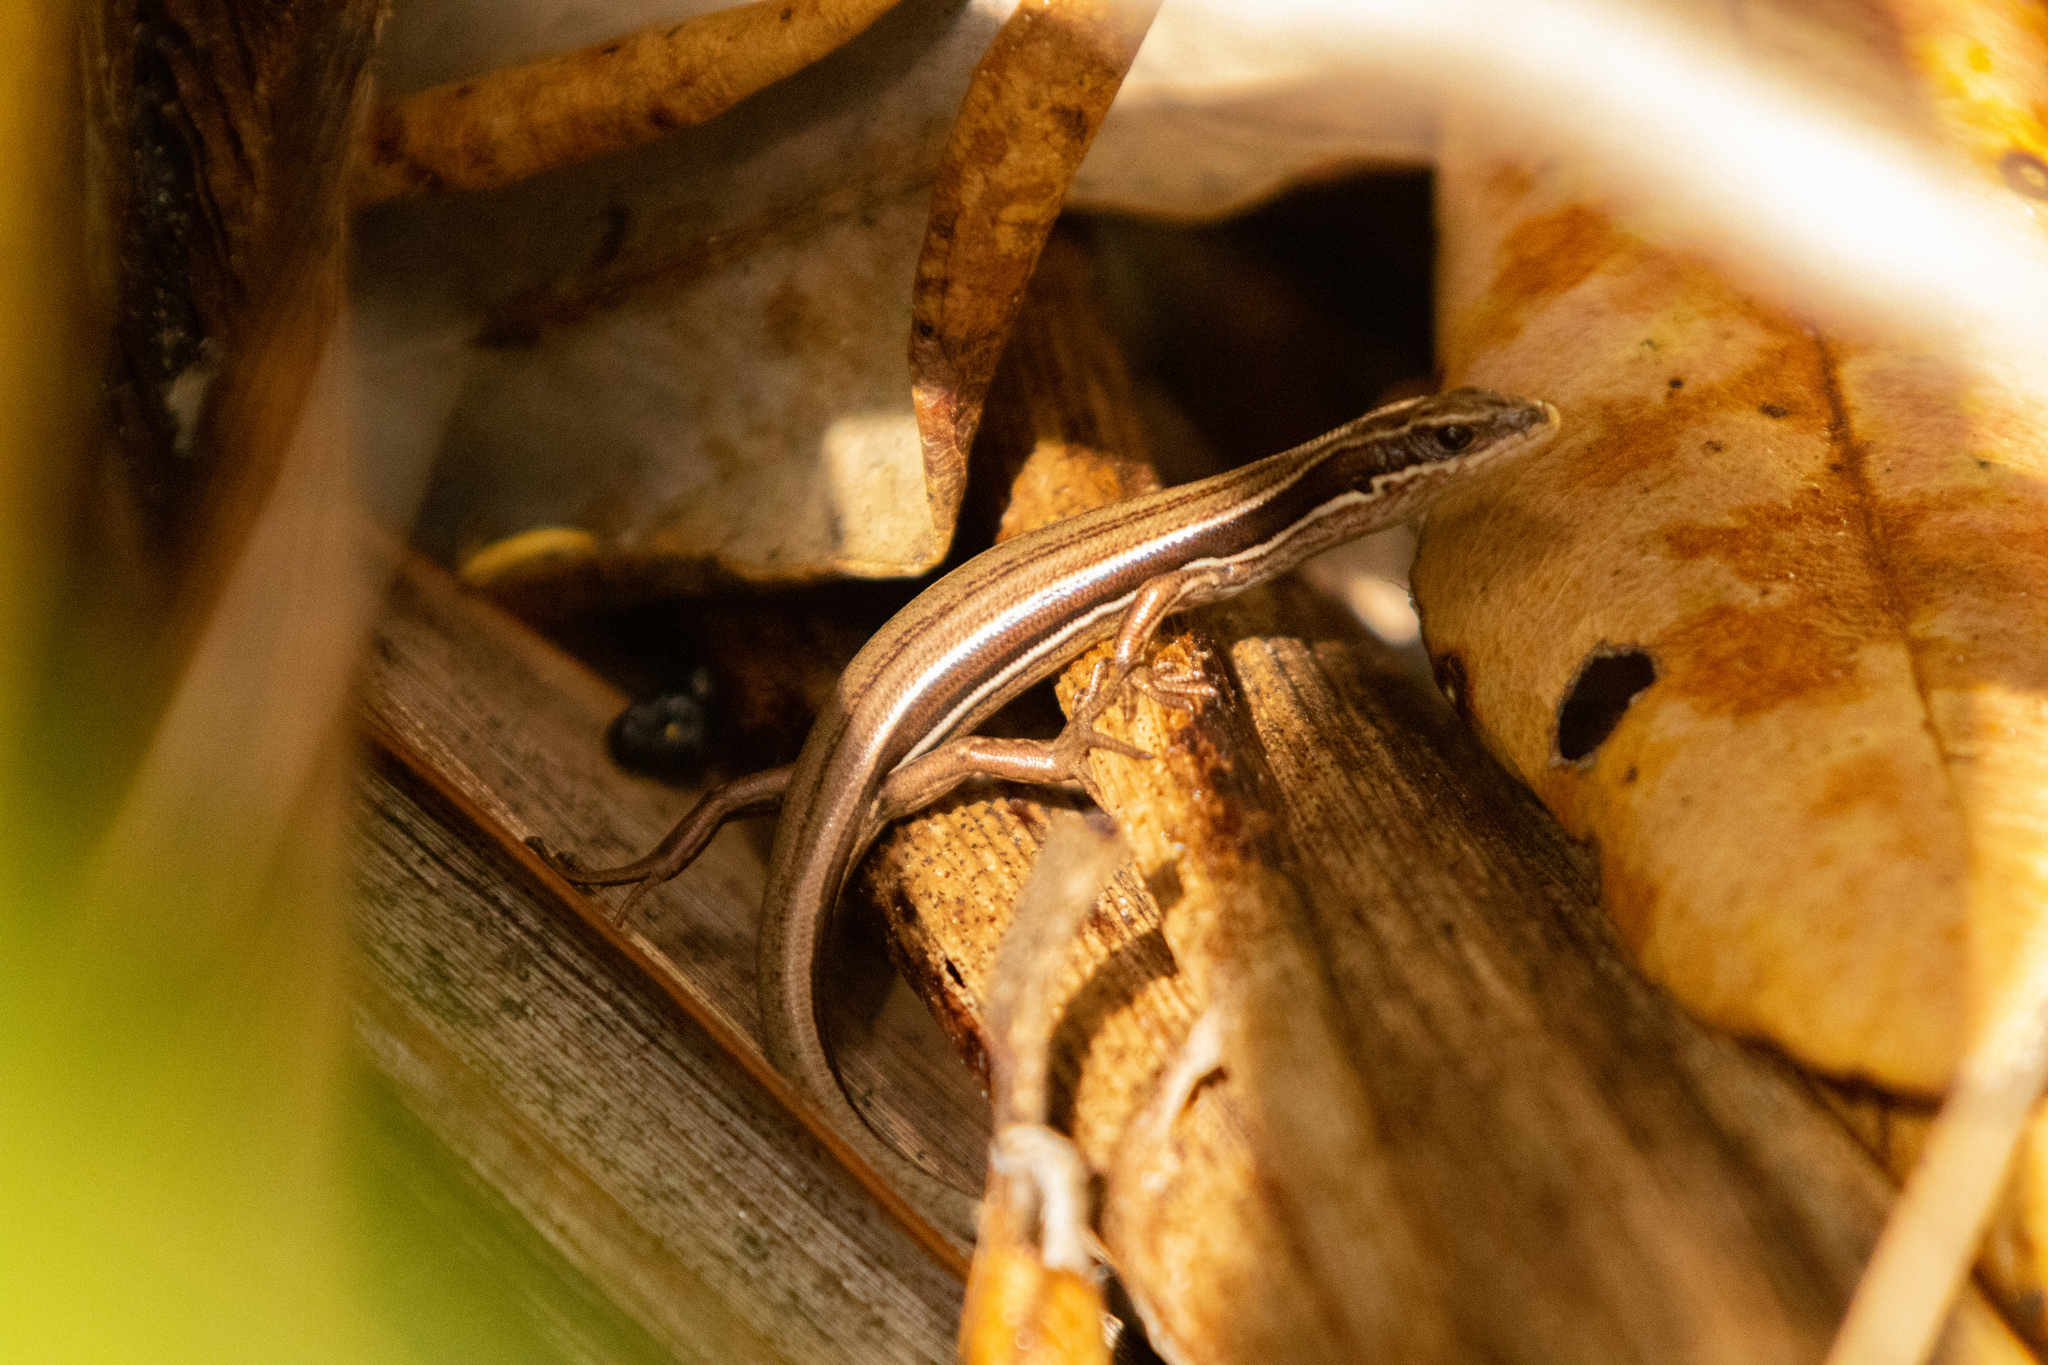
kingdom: Animalia
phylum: Chordata
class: Squamata
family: Scincidae
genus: Oligosoma
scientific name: Oligosoma moco
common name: Moco skink
